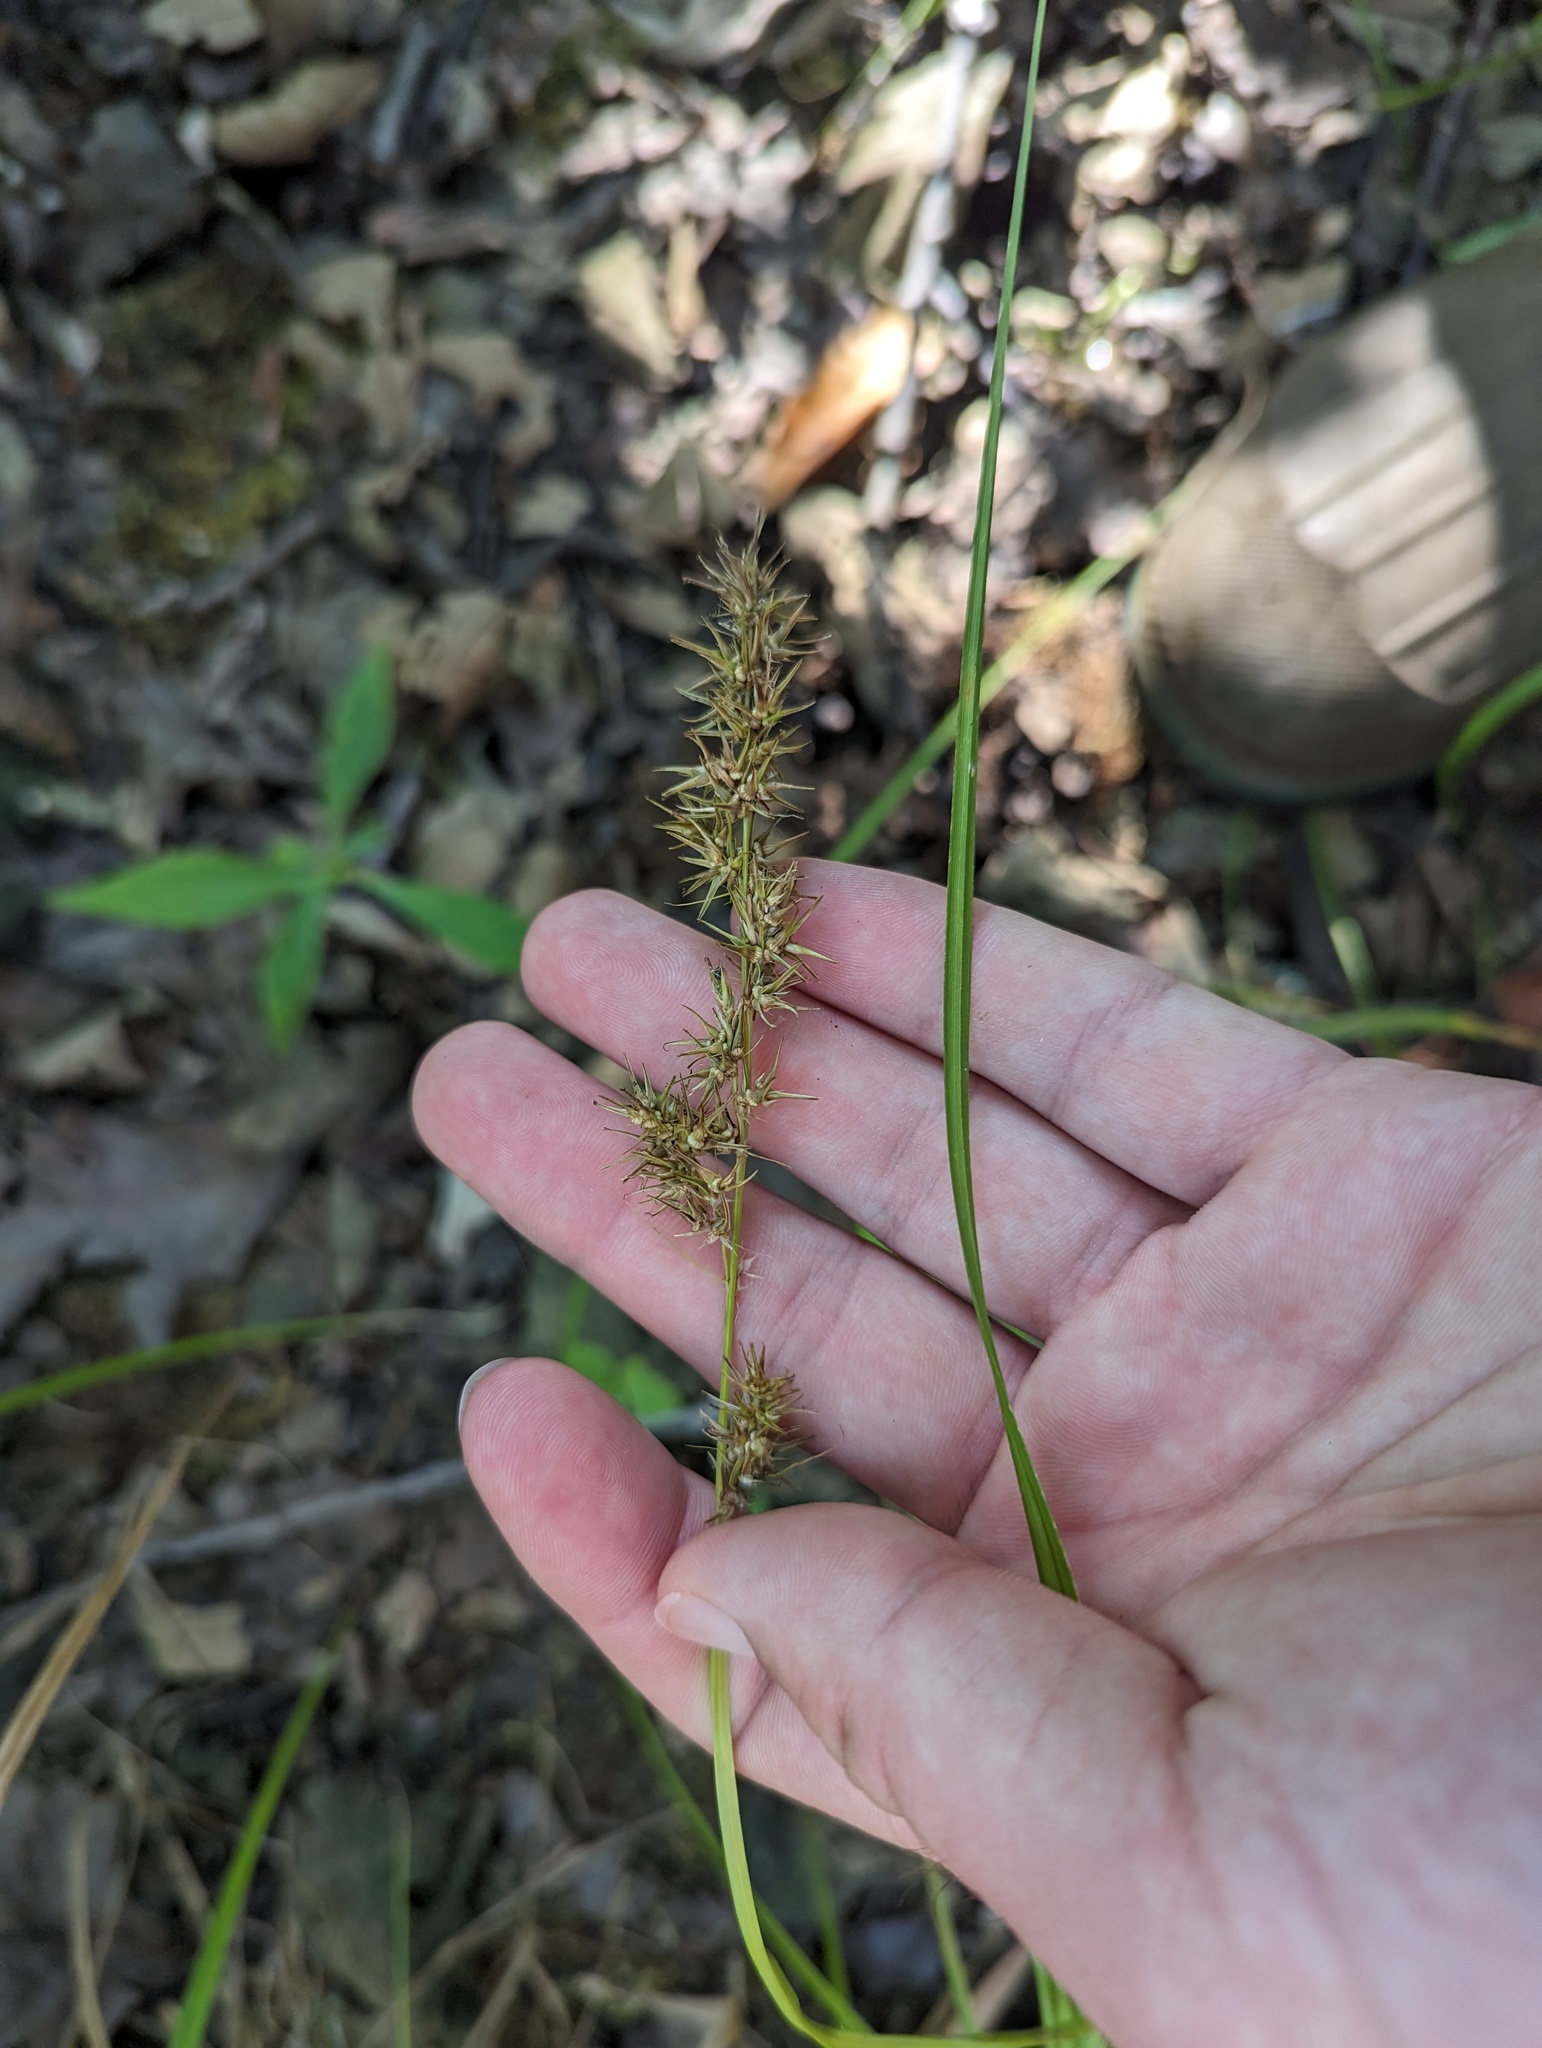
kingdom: Plantae
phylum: Tracheophyta
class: Liliopsida
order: Poales
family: Cyperaceae
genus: Carex
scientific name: Carex crus-corvi
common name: Crow-spur sedge
